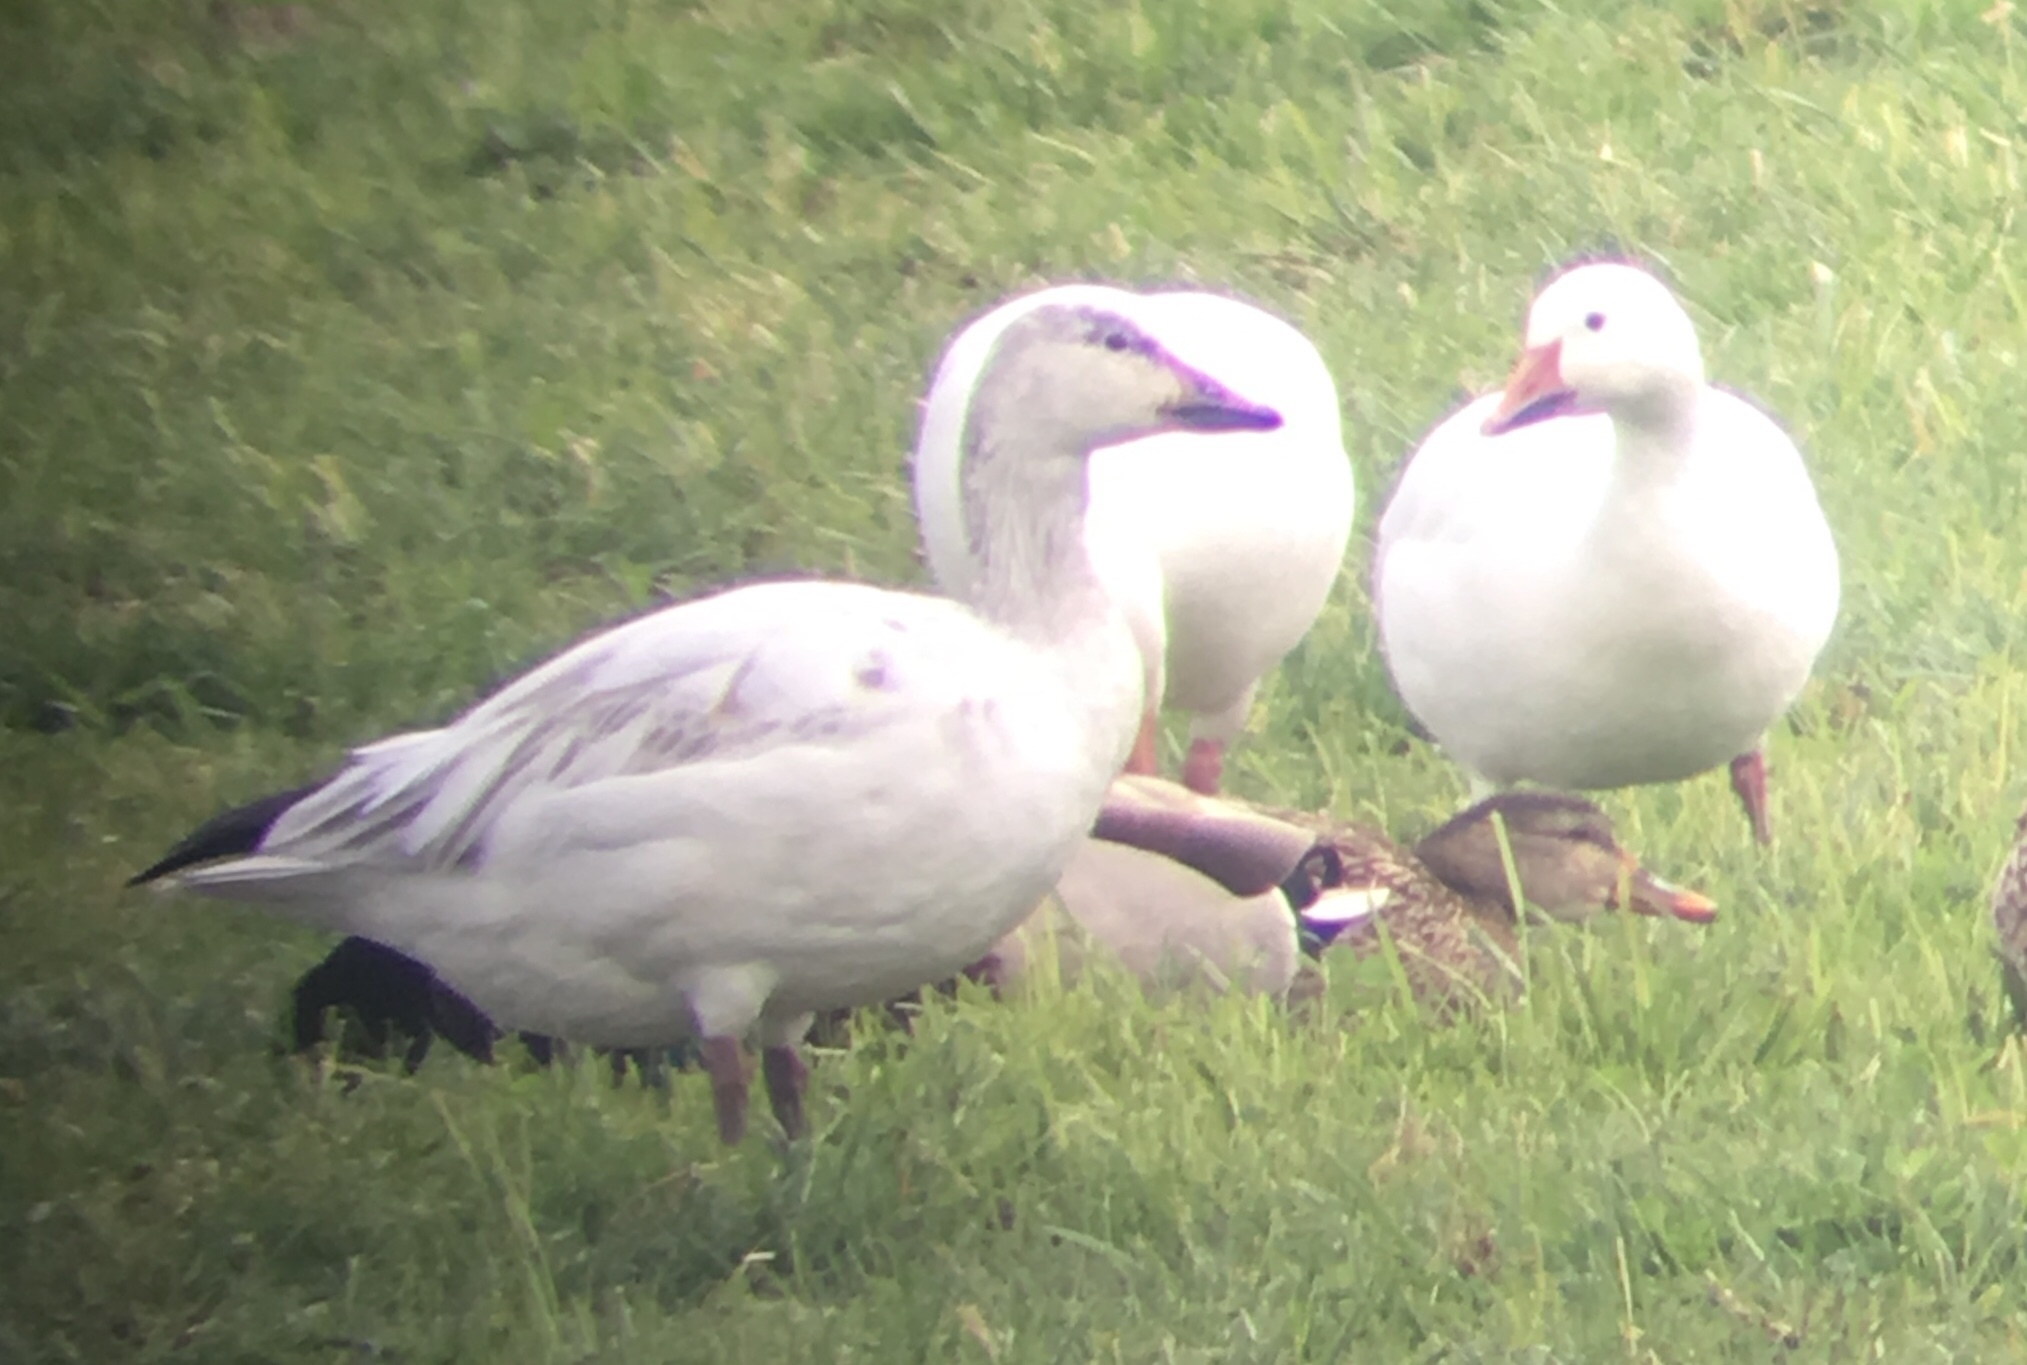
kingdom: Animalia
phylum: Chordata
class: Aves
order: Anseriformes
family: Anatidae
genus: Anser
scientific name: Anser caerulescens
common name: Snow goose
